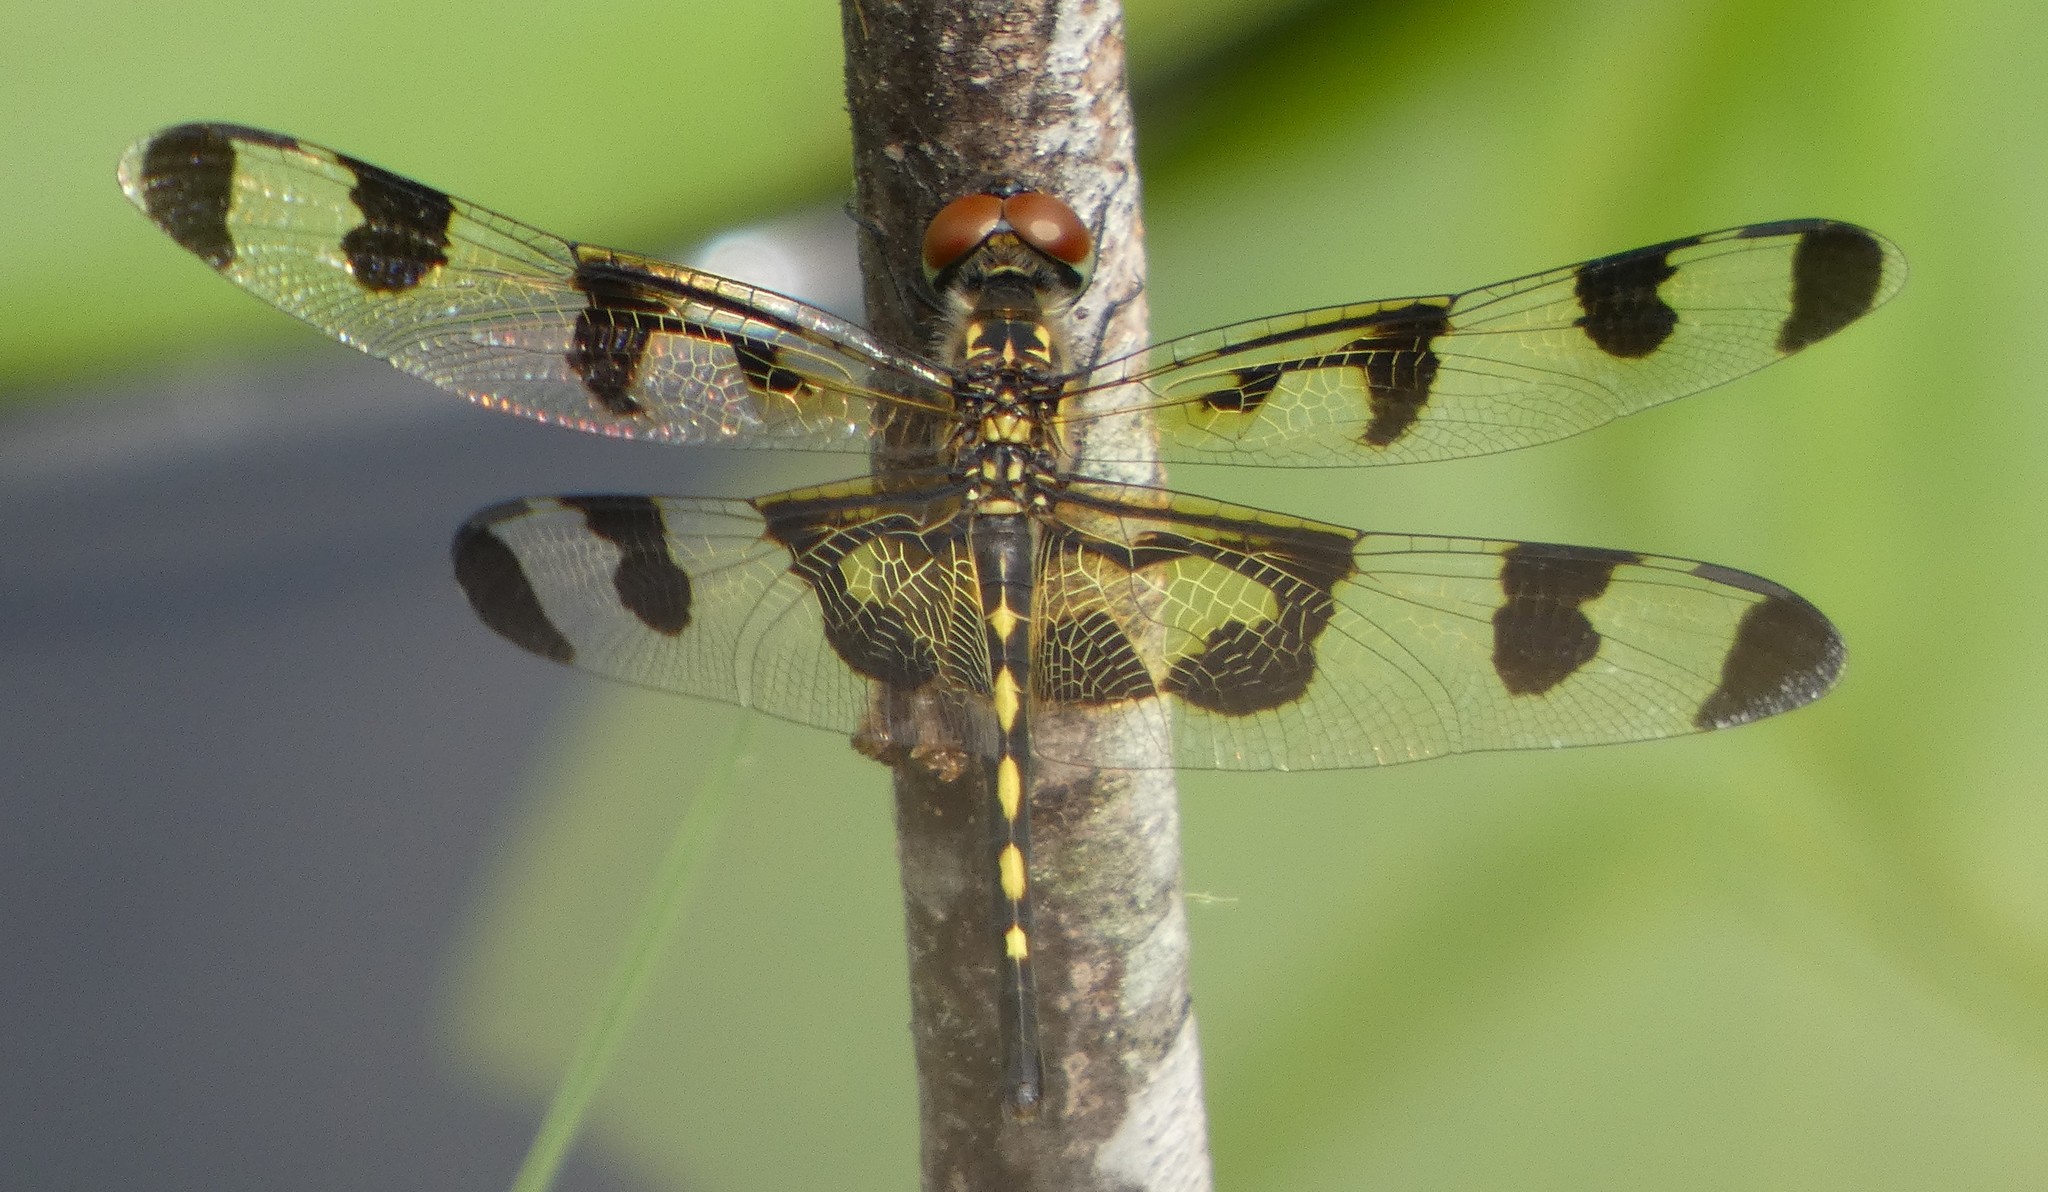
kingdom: Animalia
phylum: Arthropoda
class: Insecta
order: Odonata
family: Libellulidae
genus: Celithemis
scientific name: Celithemis fasciata
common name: Banded pennant
